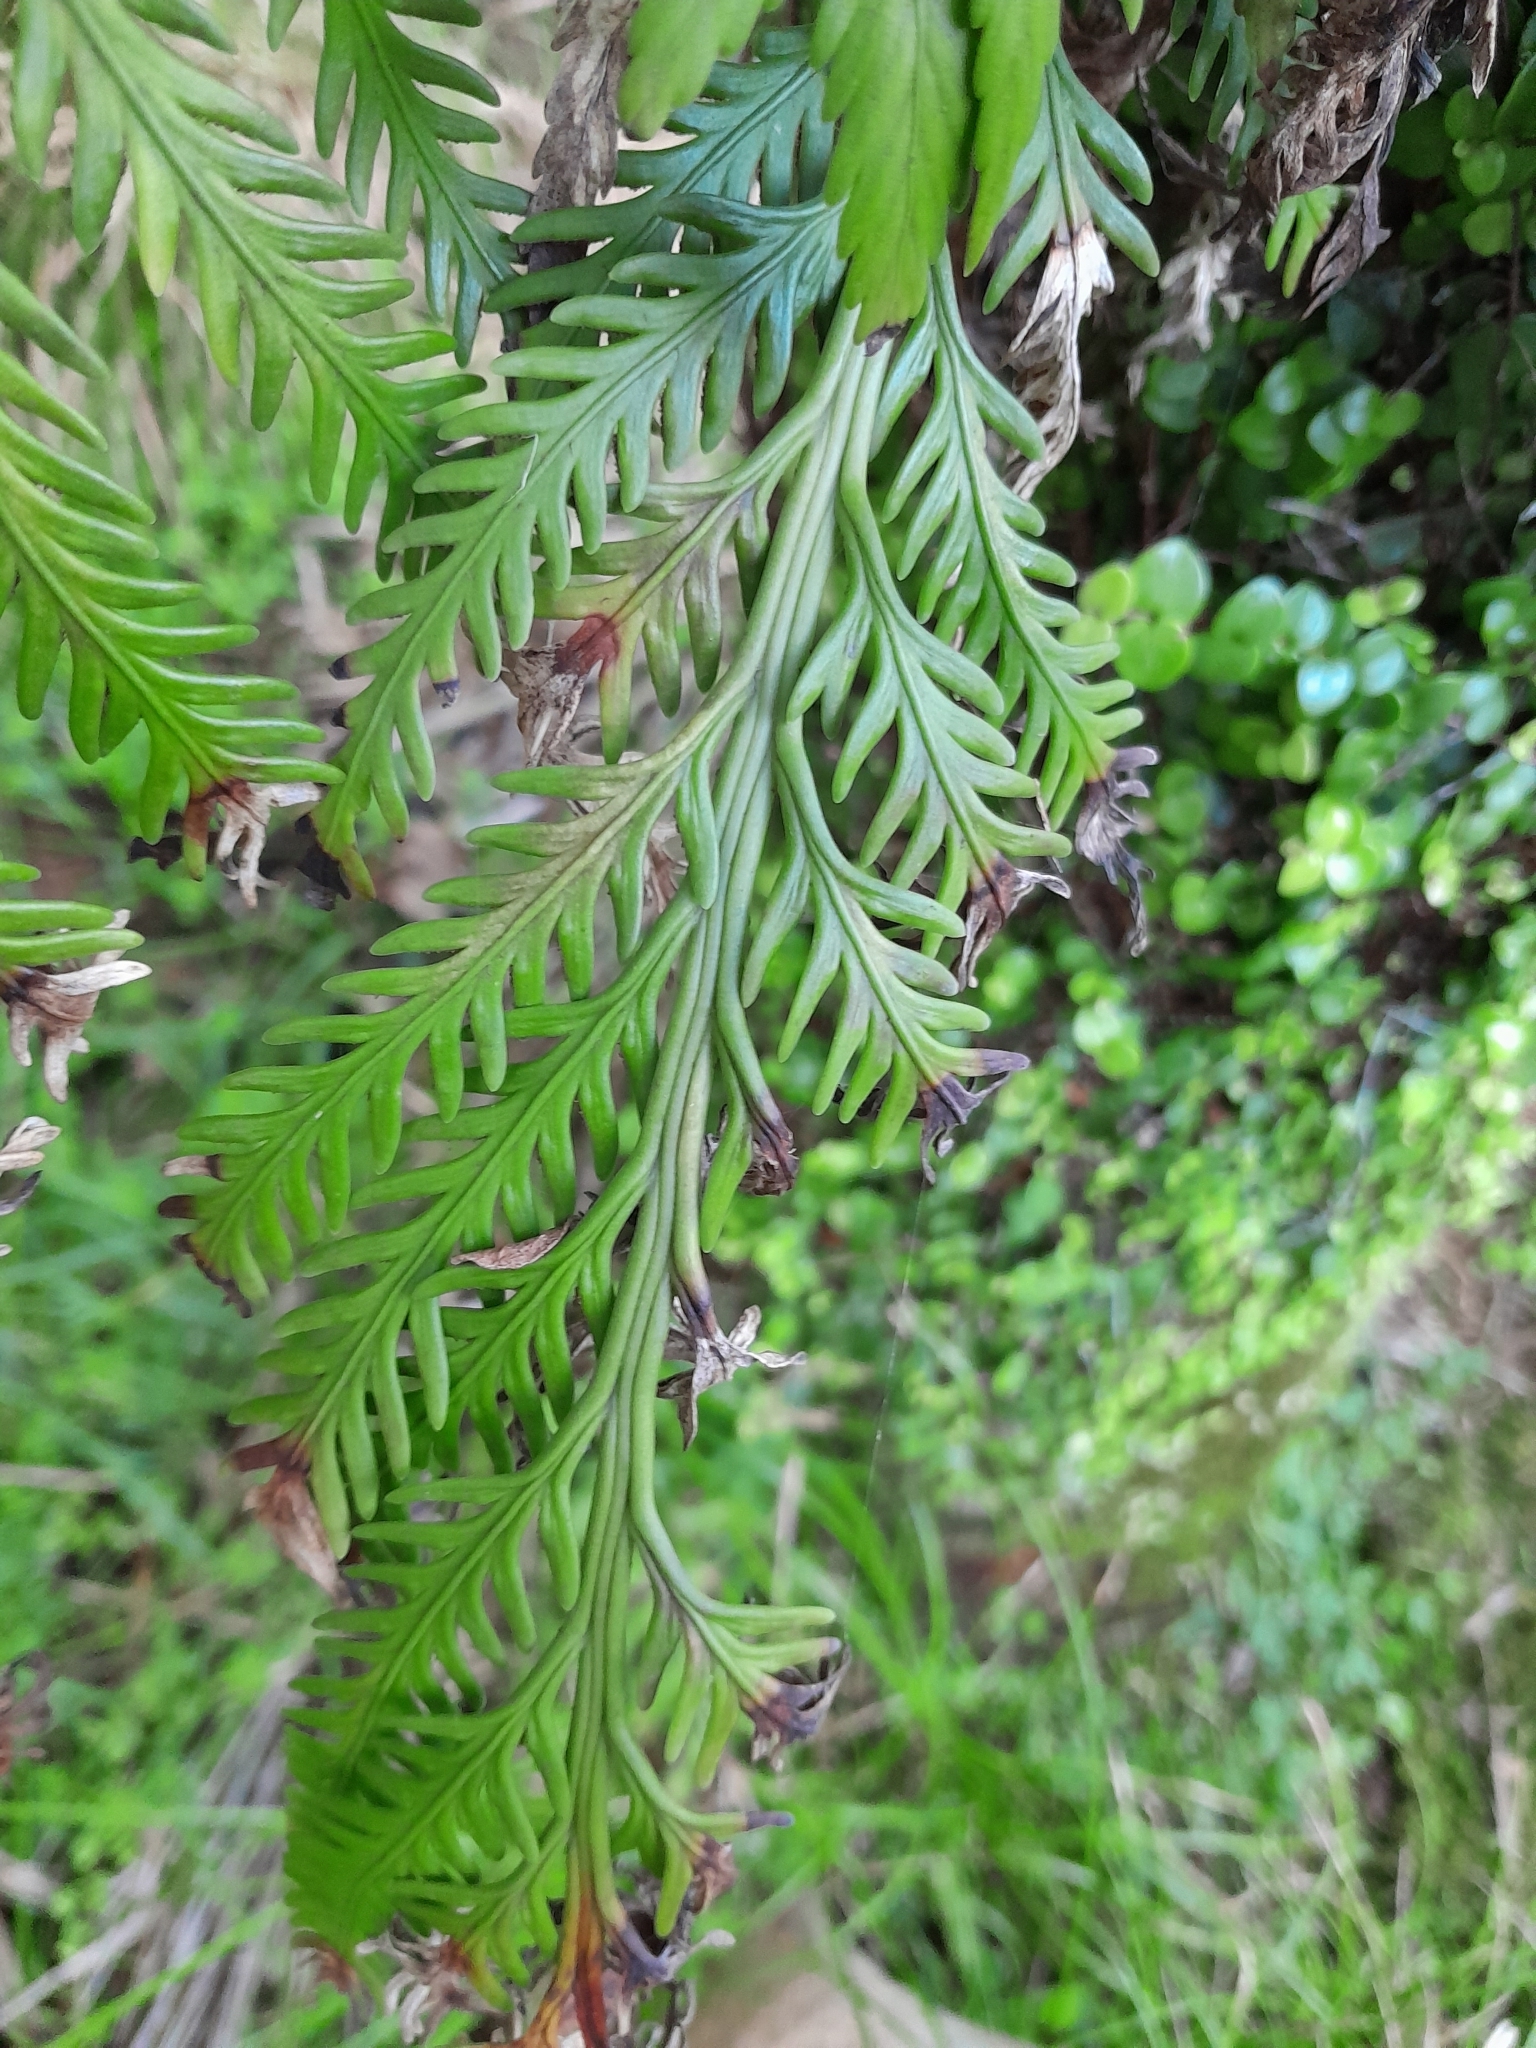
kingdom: Plantae
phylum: Tracheophyta
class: Polypodiopsida
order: Polypodiales
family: Aspleniaceae
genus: Asplenium
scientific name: Asplenium flaccidum
